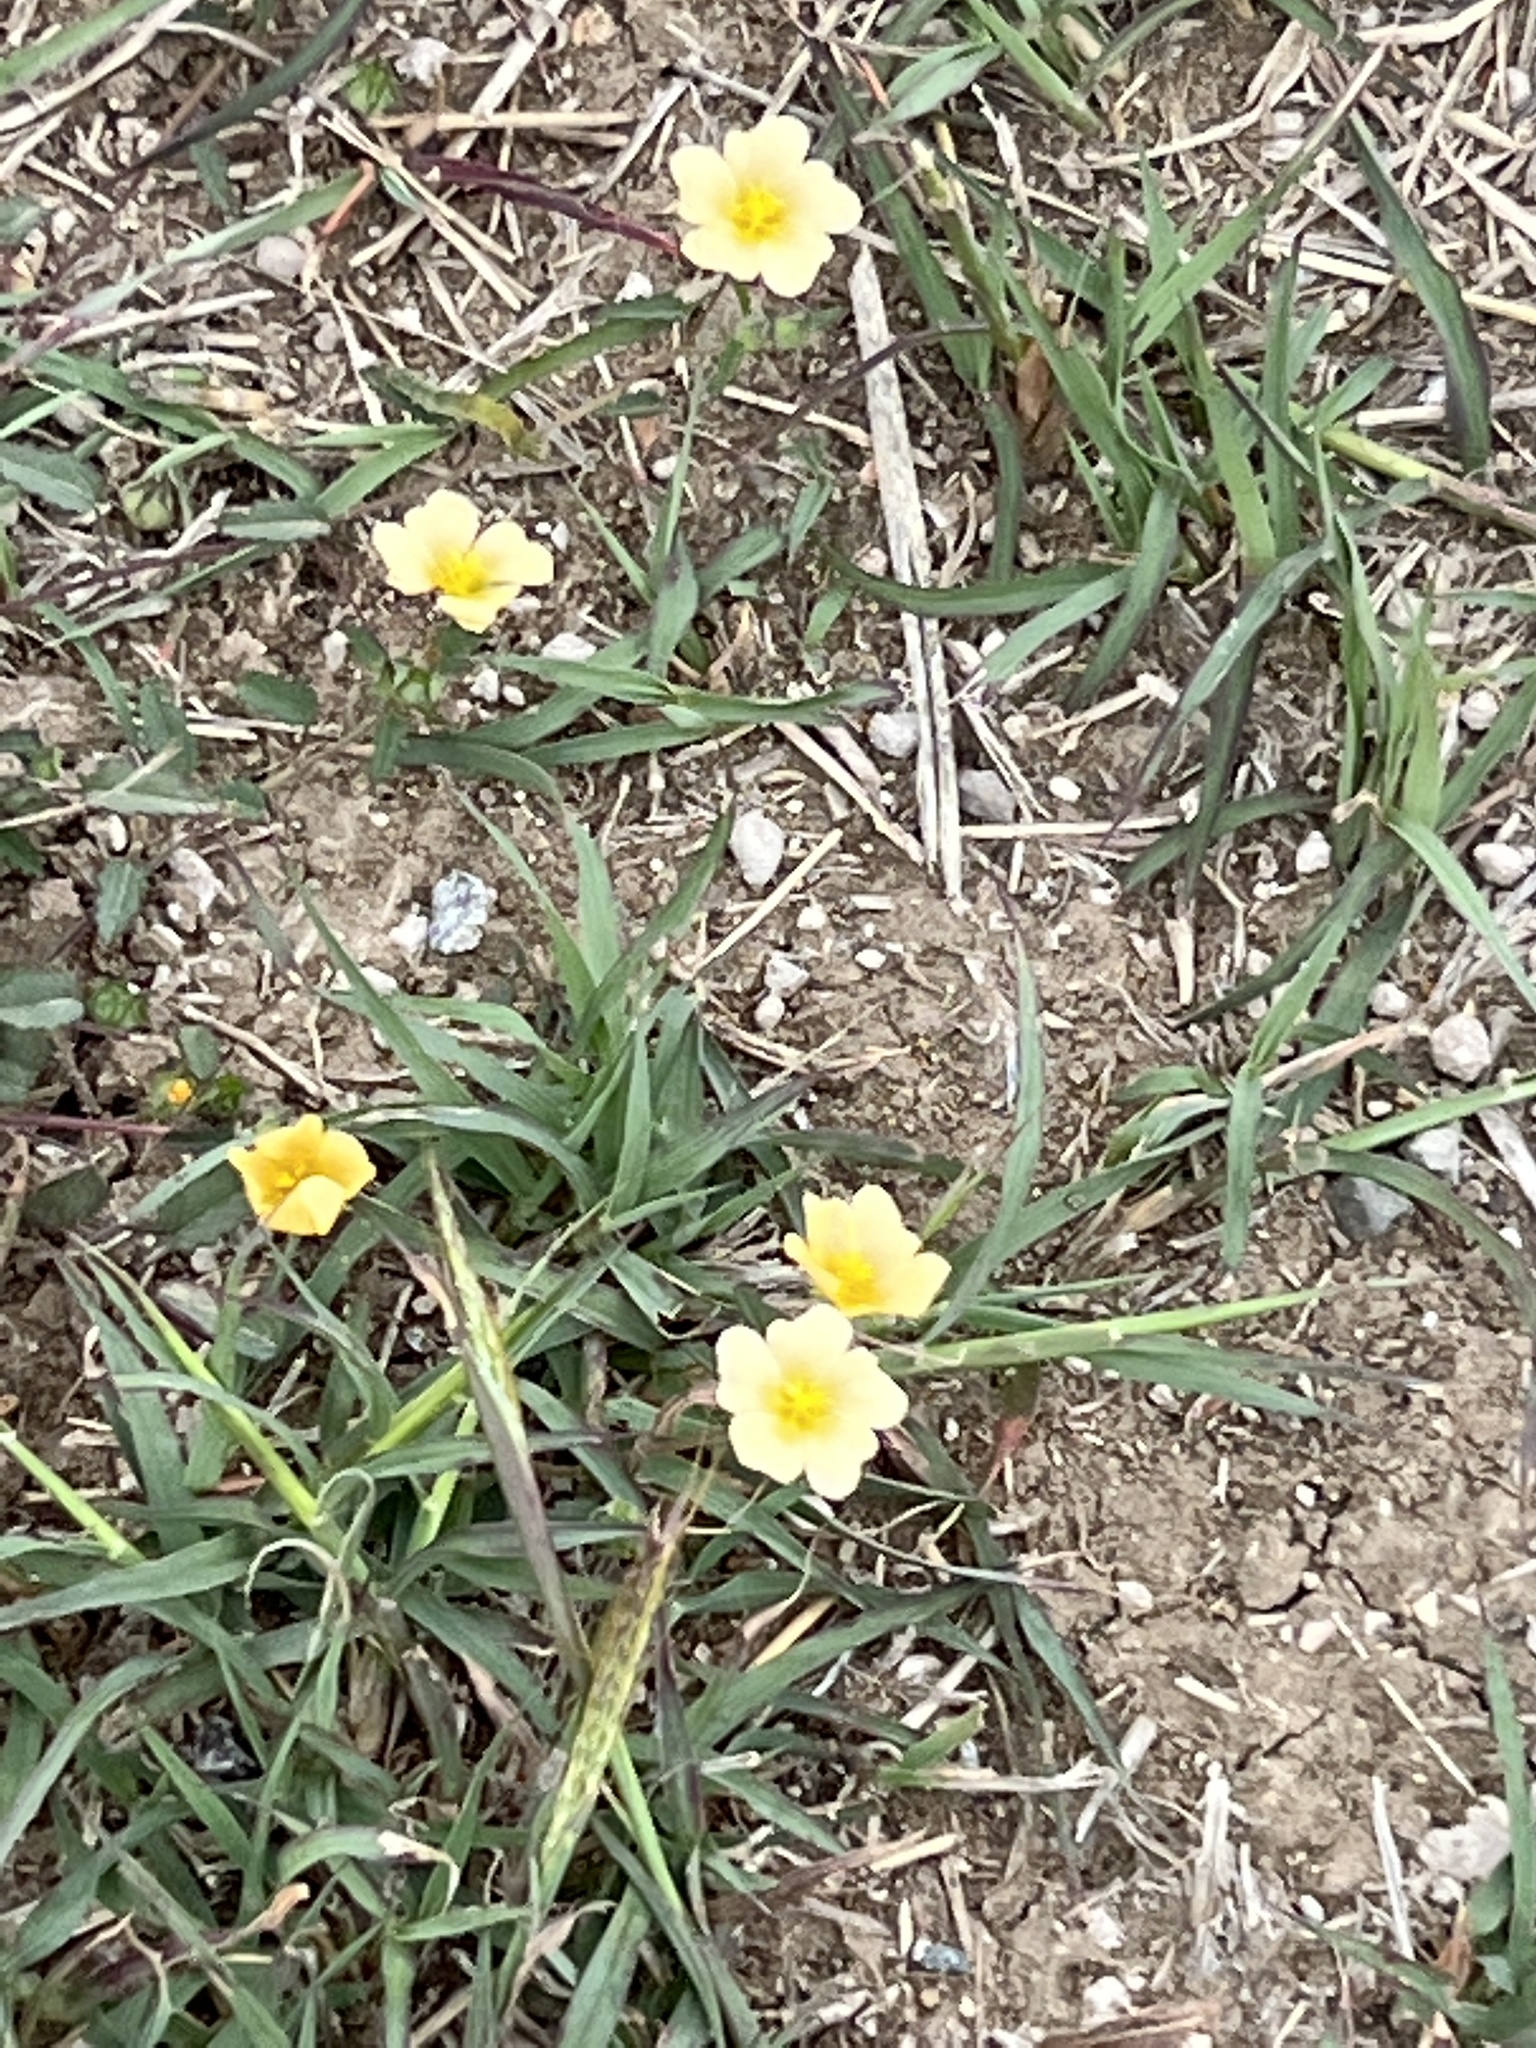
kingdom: Plantae
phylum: Tracheophyta
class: Magnoliopsida
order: Malvales
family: Malvaceae
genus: Sida
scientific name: Sida abutilifolia
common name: Spreading fanpetals
